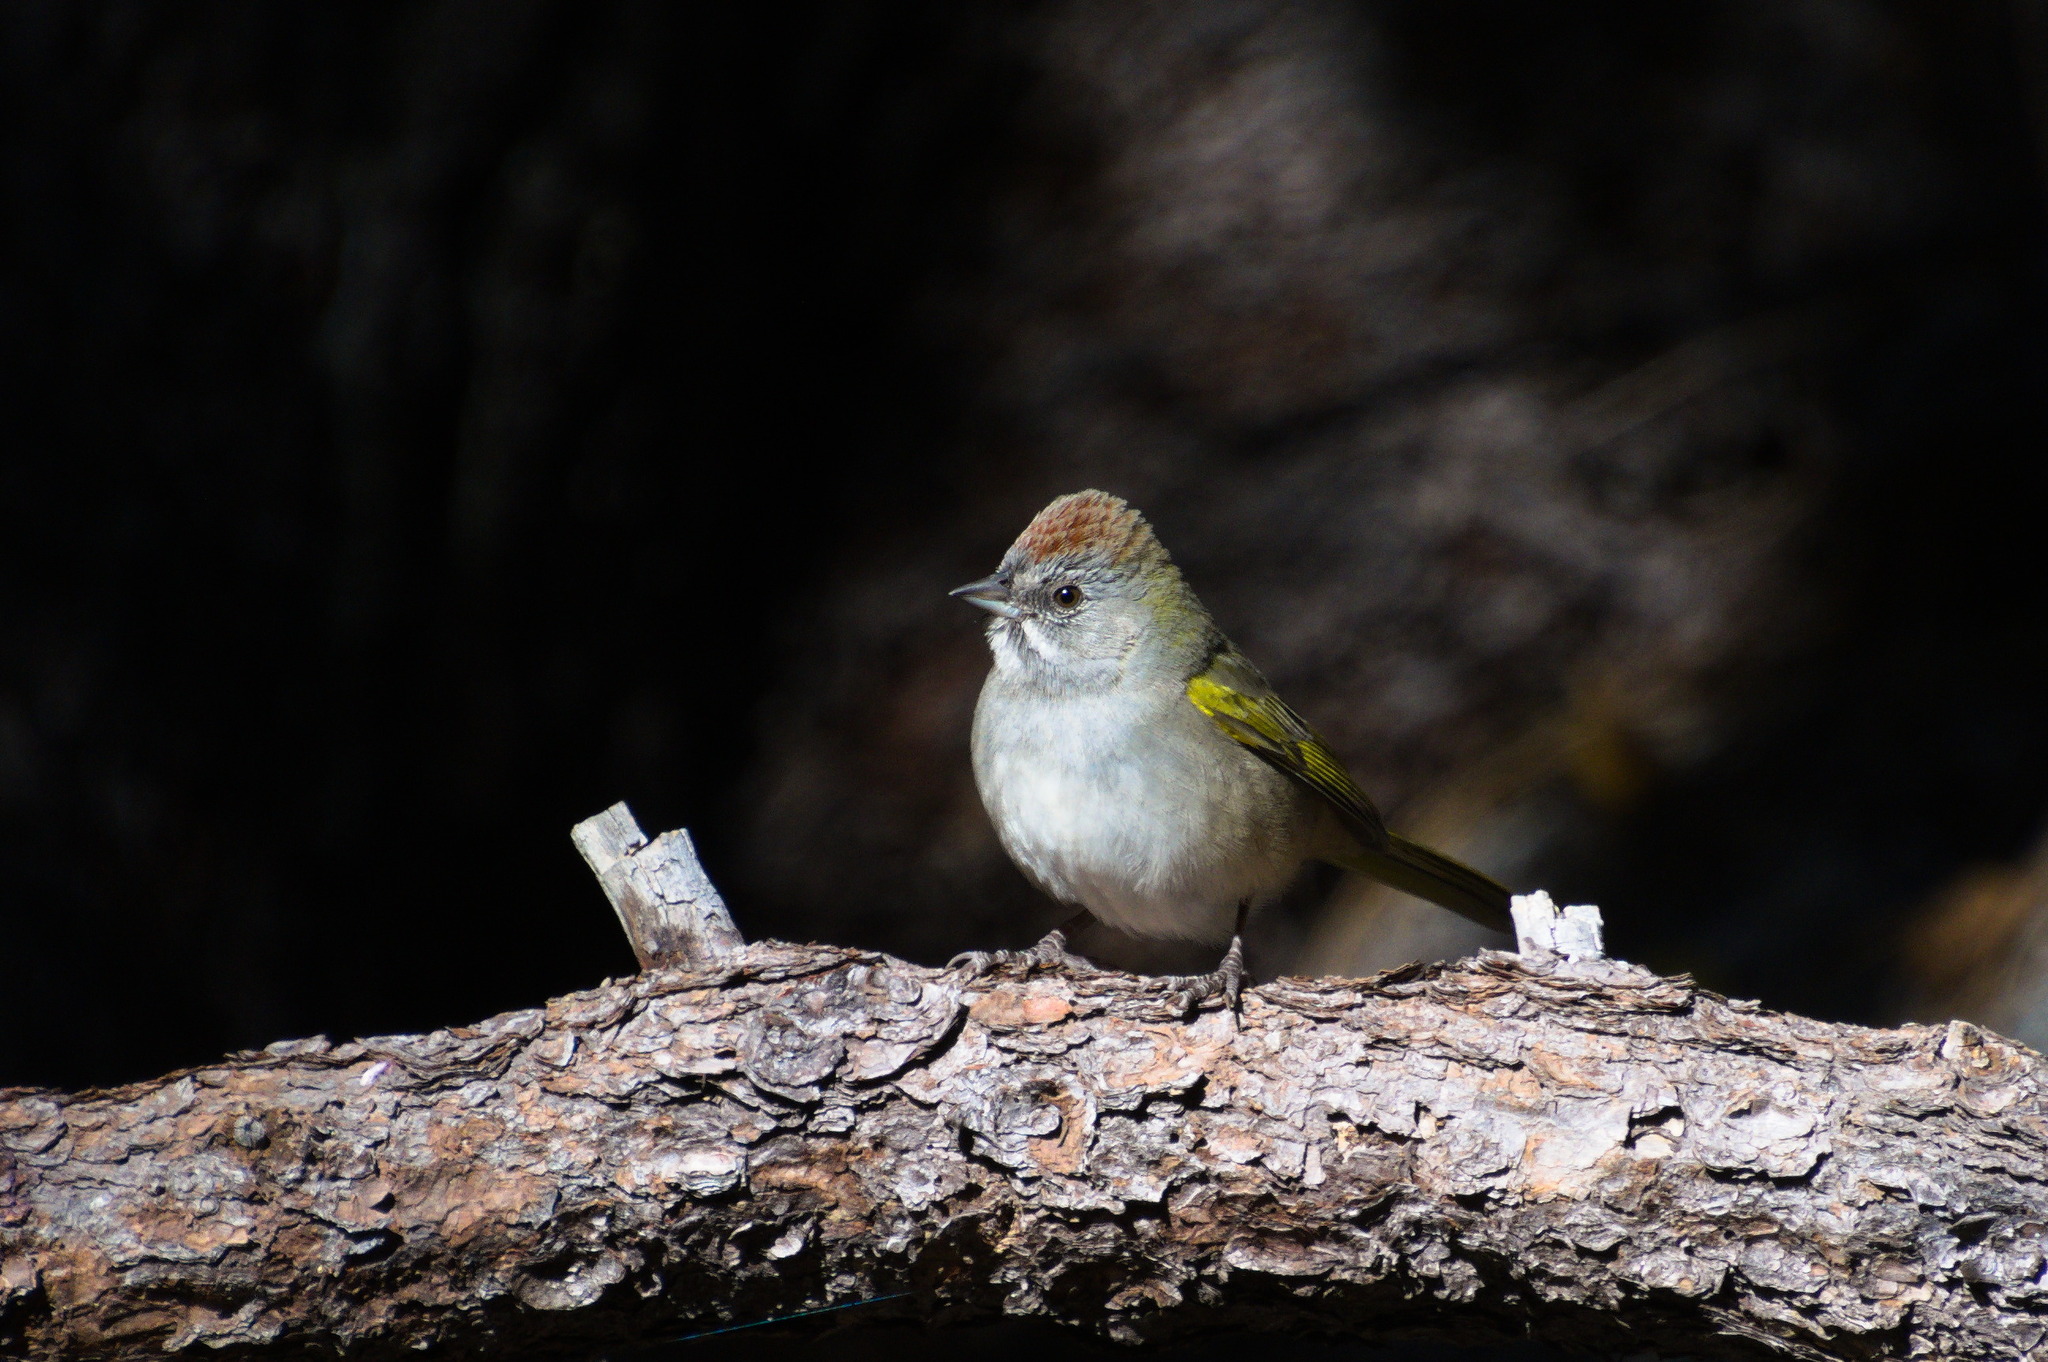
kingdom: Animalia
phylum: Chordata
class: Aves
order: Passeriformes
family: Passerellidae
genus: Pipilo
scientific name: Pipilo chlorurus
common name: Green-tailed towhee
